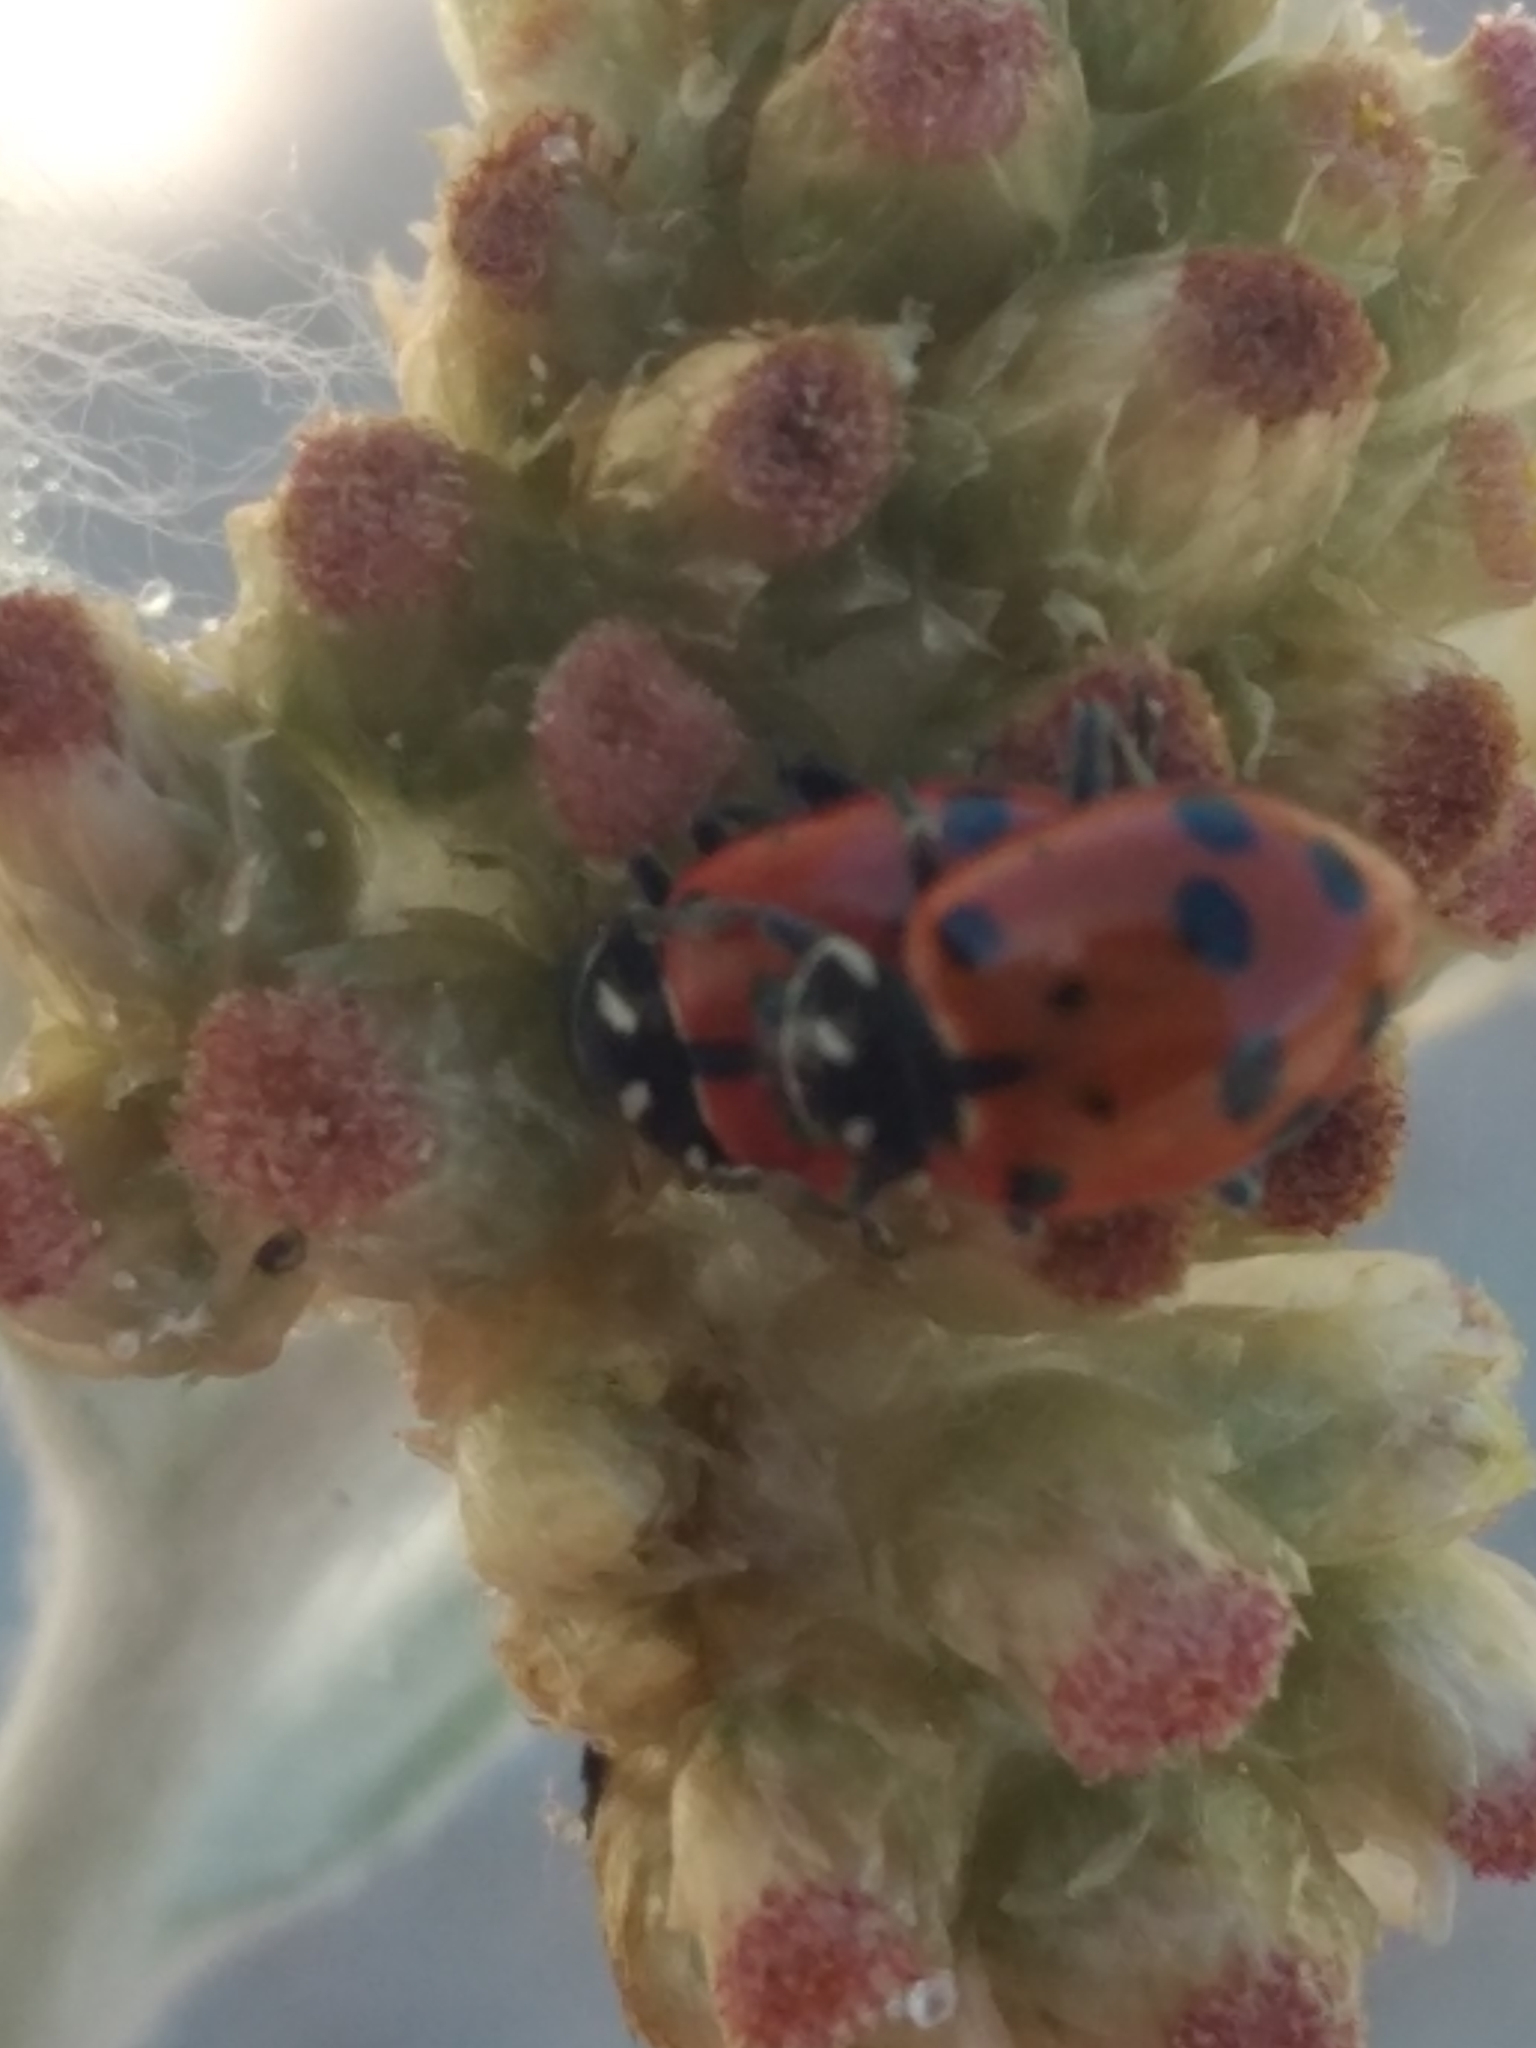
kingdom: Animalia
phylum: Arthropoda
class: Insecta
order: Coleoptera
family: Coccinellidae
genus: Hippodamia
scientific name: Hippodamia convergens
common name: Convergent lady beetle
